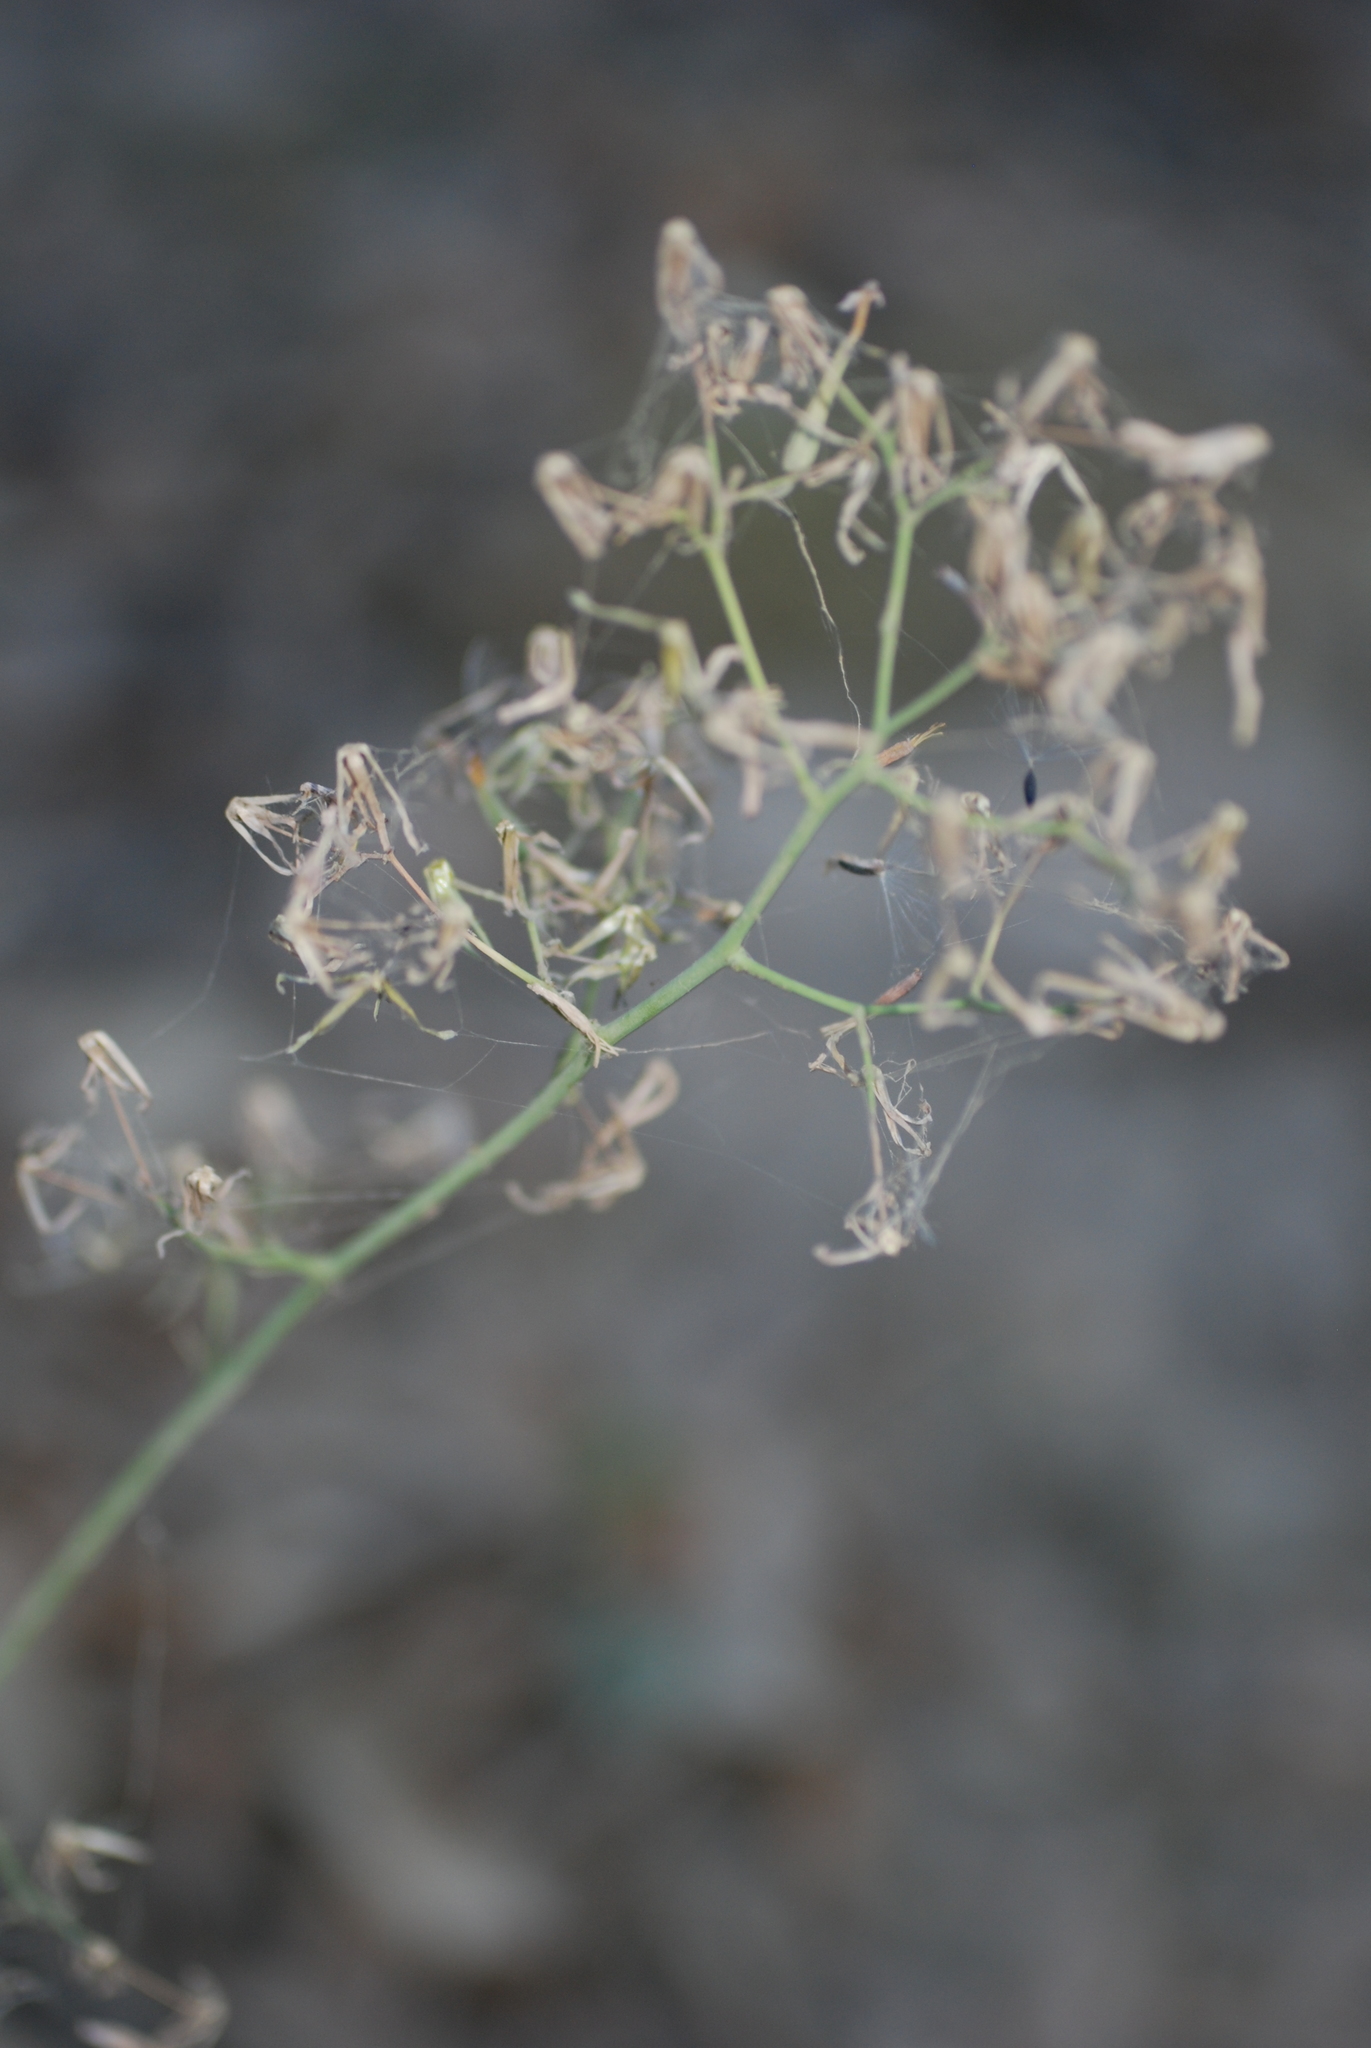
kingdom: Plantae
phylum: Tracheophyta
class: Magnoliopsida
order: Asterales
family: Asteraceae
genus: Mycelis
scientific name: Mycelis muralis
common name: Wall lettuce
